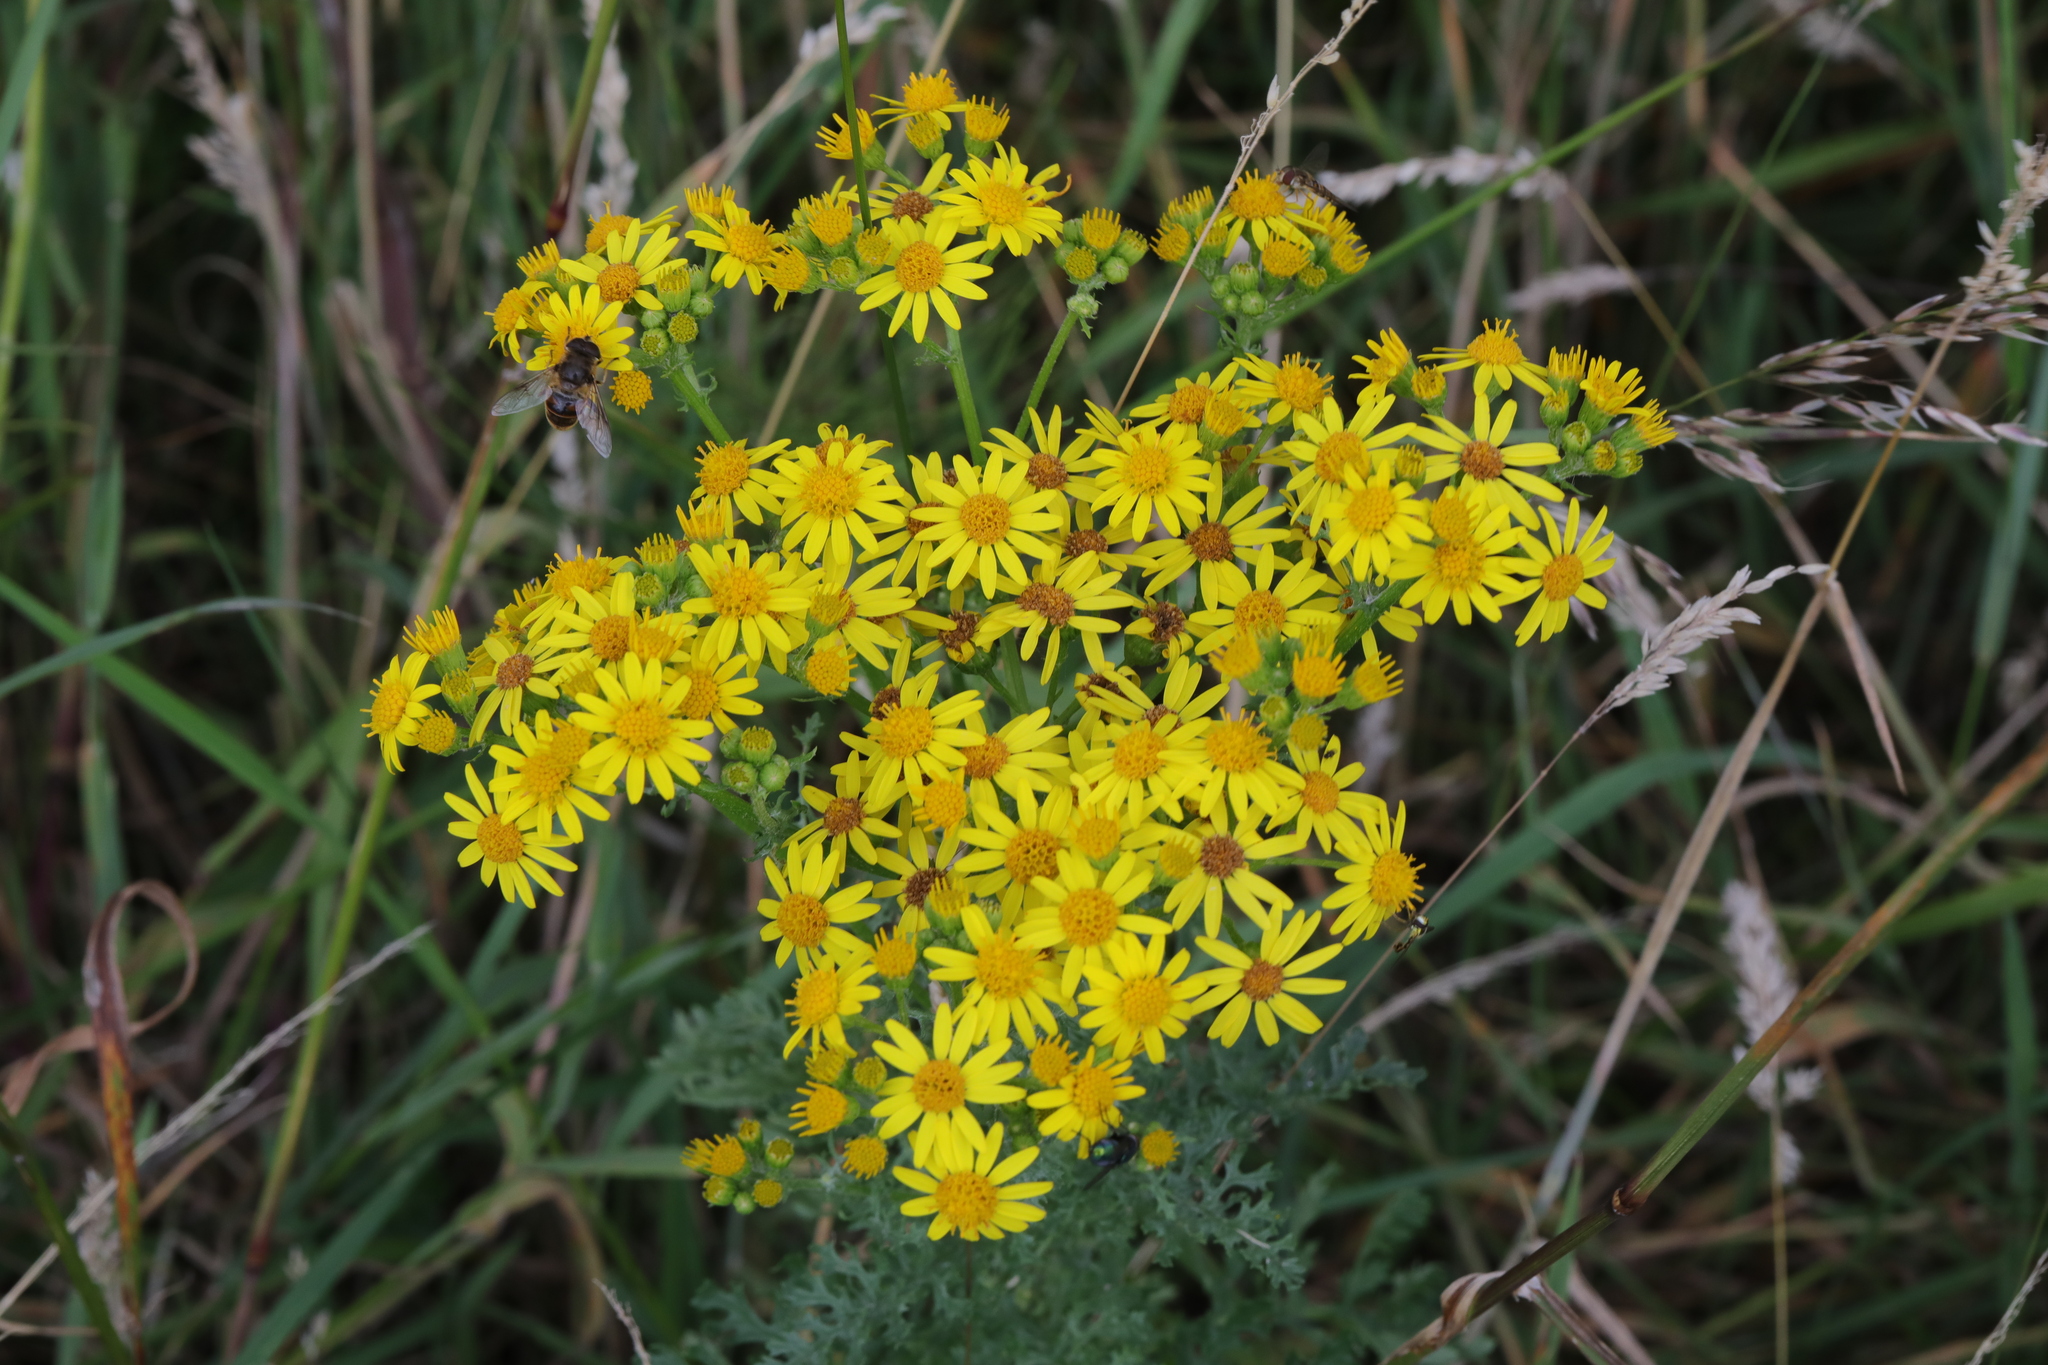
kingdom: Plantae
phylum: Tracheophyta
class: Magnoliopsida
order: Asterales
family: Asteraceae
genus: Jacobaea
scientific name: Jacobaea vulgaris
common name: Stinking willie
